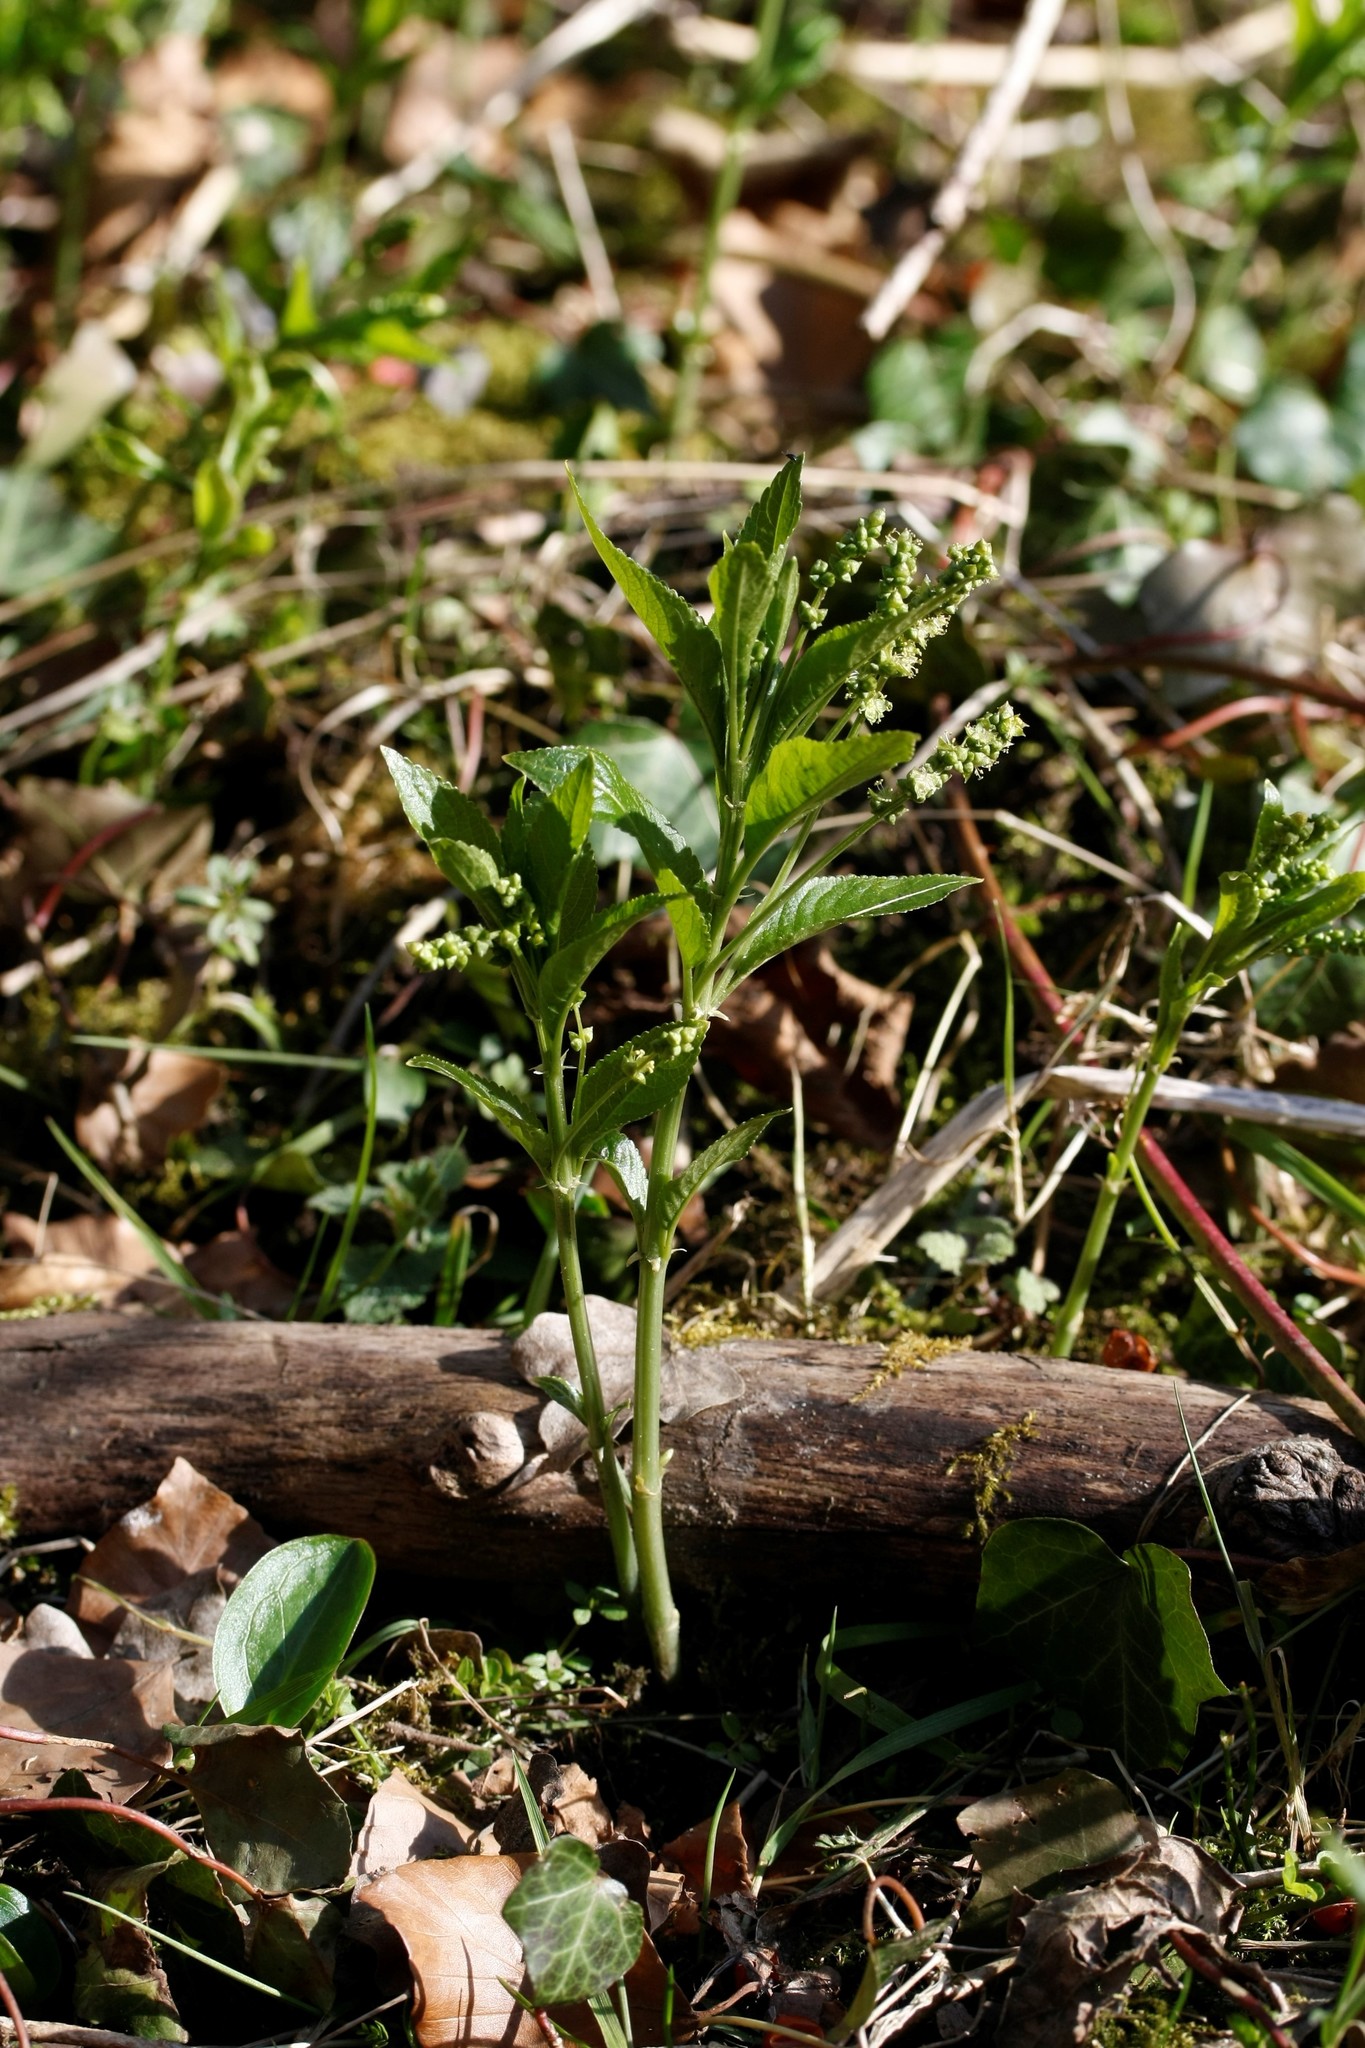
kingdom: Plantae
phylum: Tracheophyta
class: Magnoliopsida
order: Malpighiales
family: Euphorbiaceae
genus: Mercurialis
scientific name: Mercurialis perennis
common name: Dog mercury
